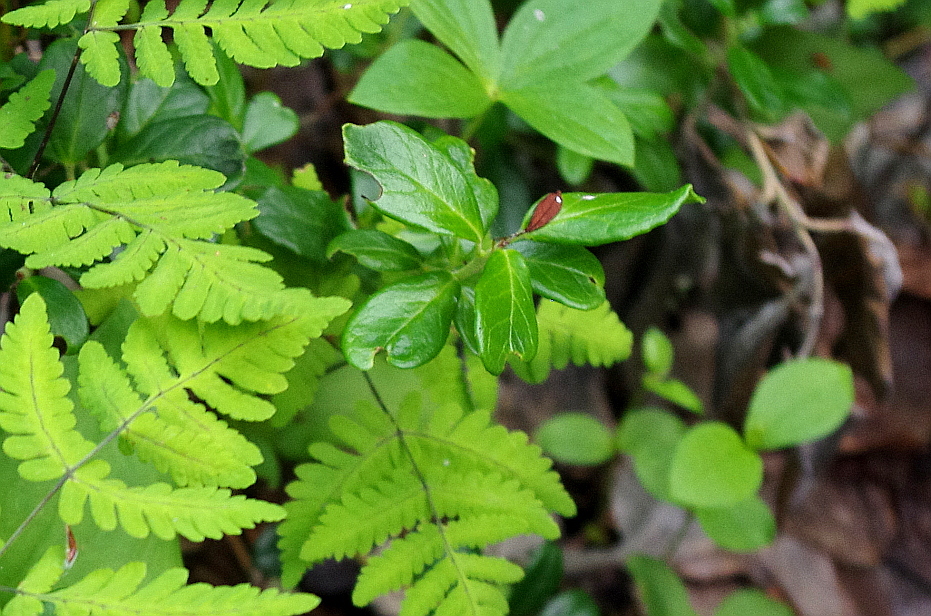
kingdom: Plantae
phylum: Tracheophyta
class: Magnoliopsida
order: Ericales
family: Ericaceae
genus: Vaccinium
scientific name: Vaccinium vitis-idaea
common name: Cowberry
